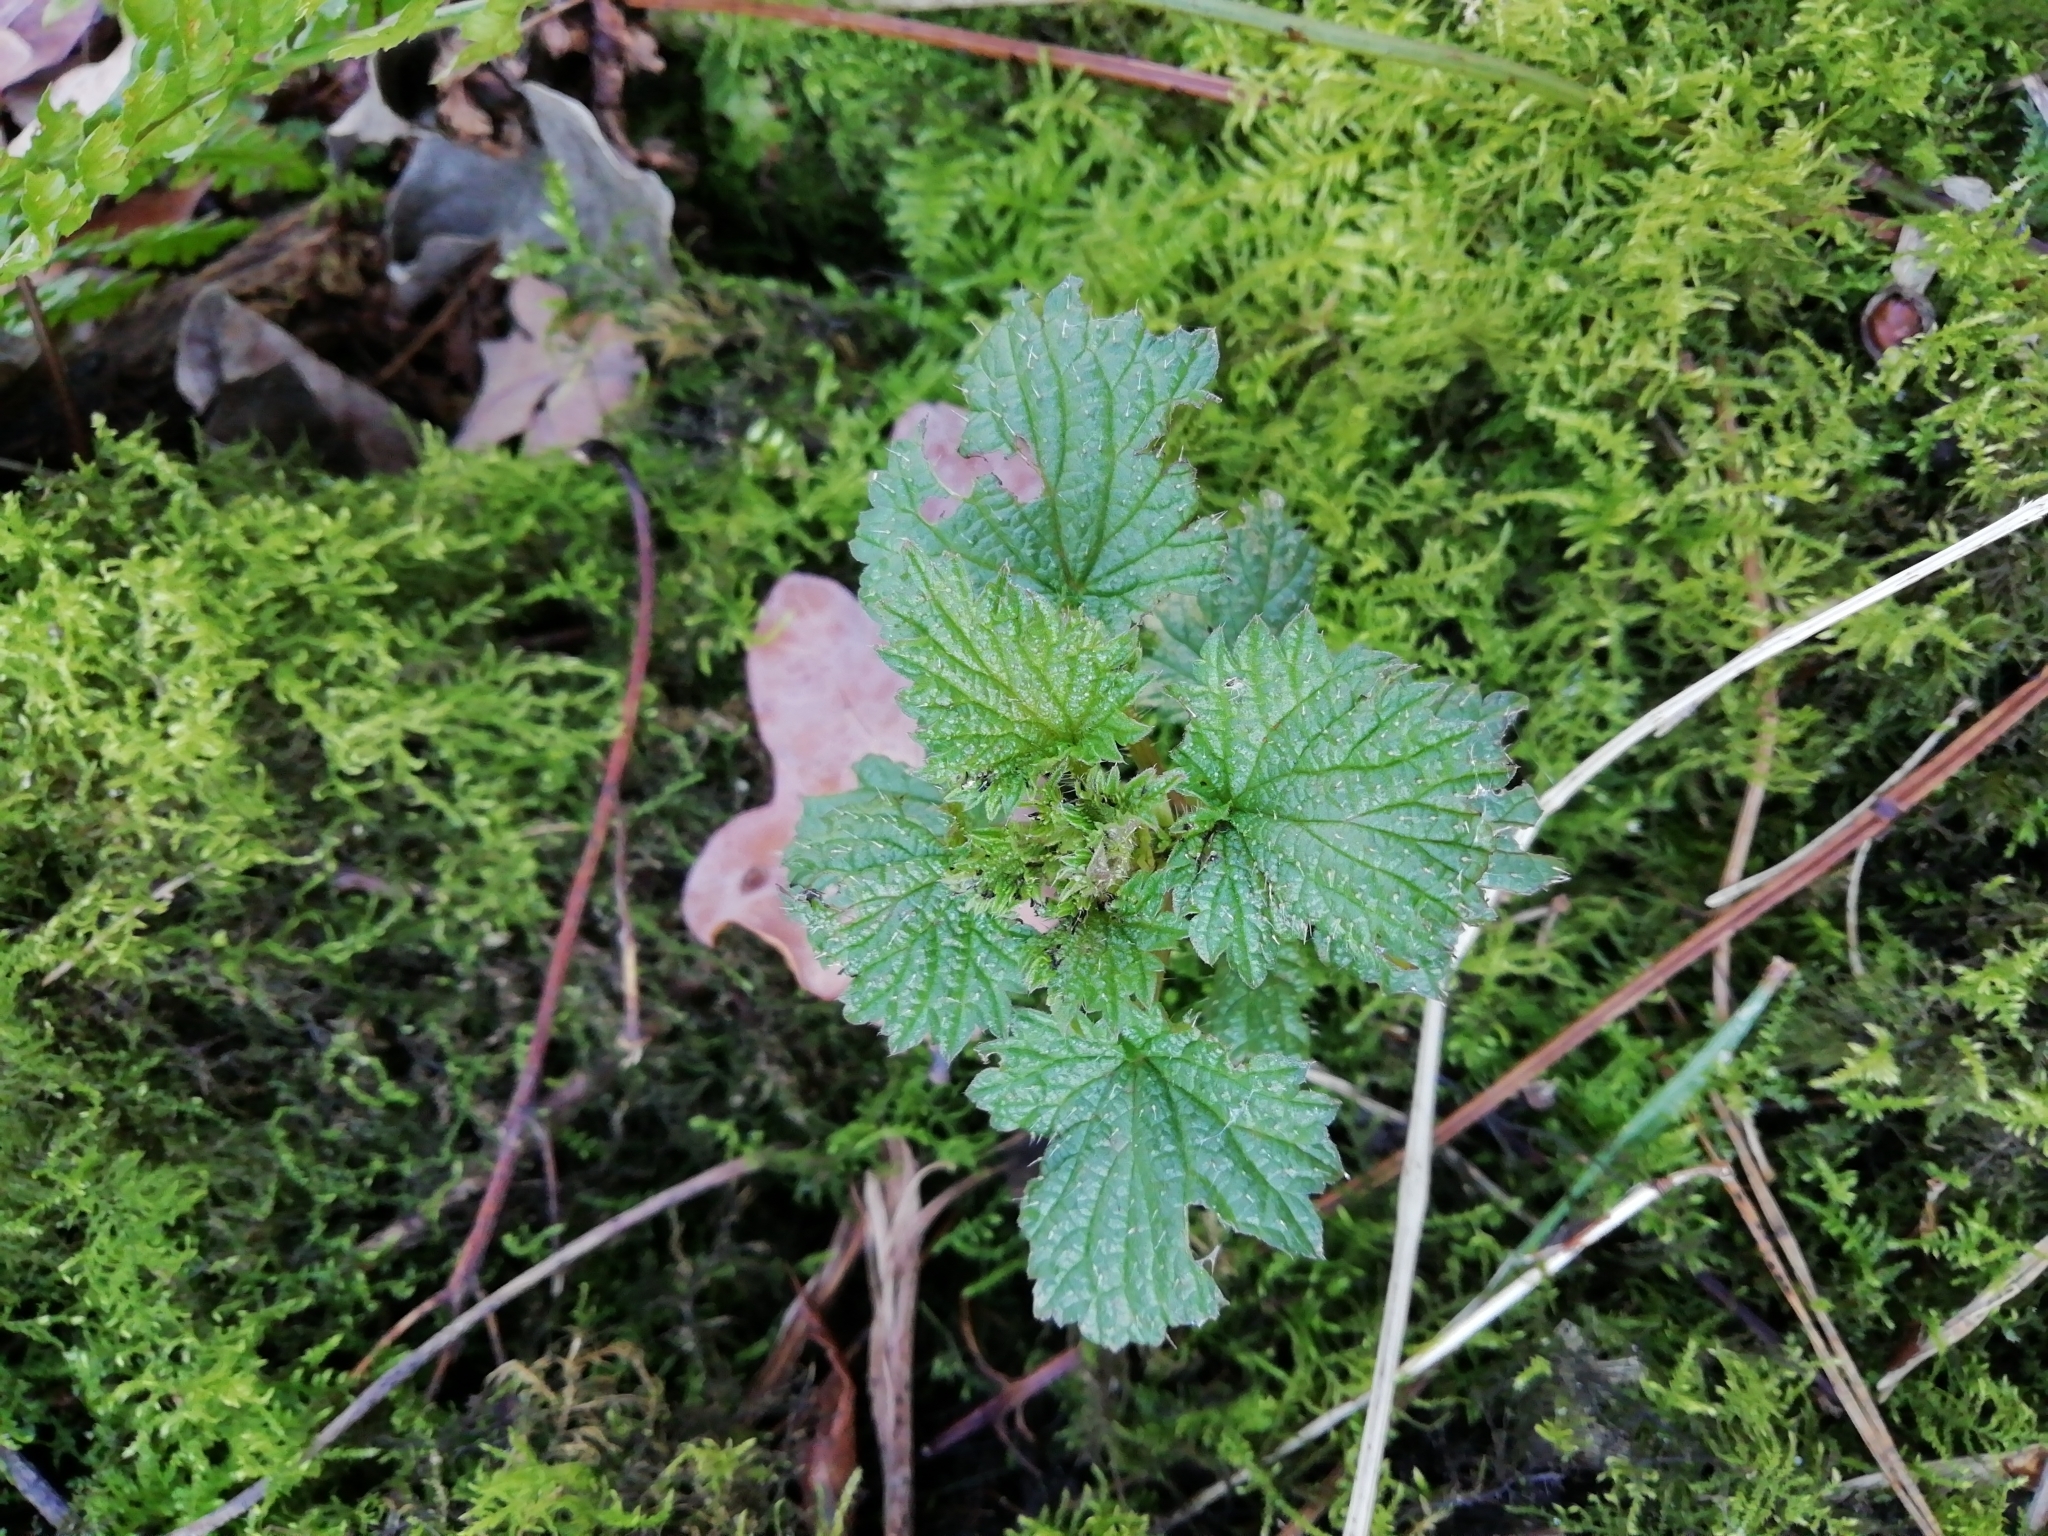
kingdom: Plantae
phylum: Tracheophyta
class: Magnoliopsida
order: Rosales
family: Urticaceae
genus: Urtica
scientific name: Urtica dioica
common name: Common nettle
